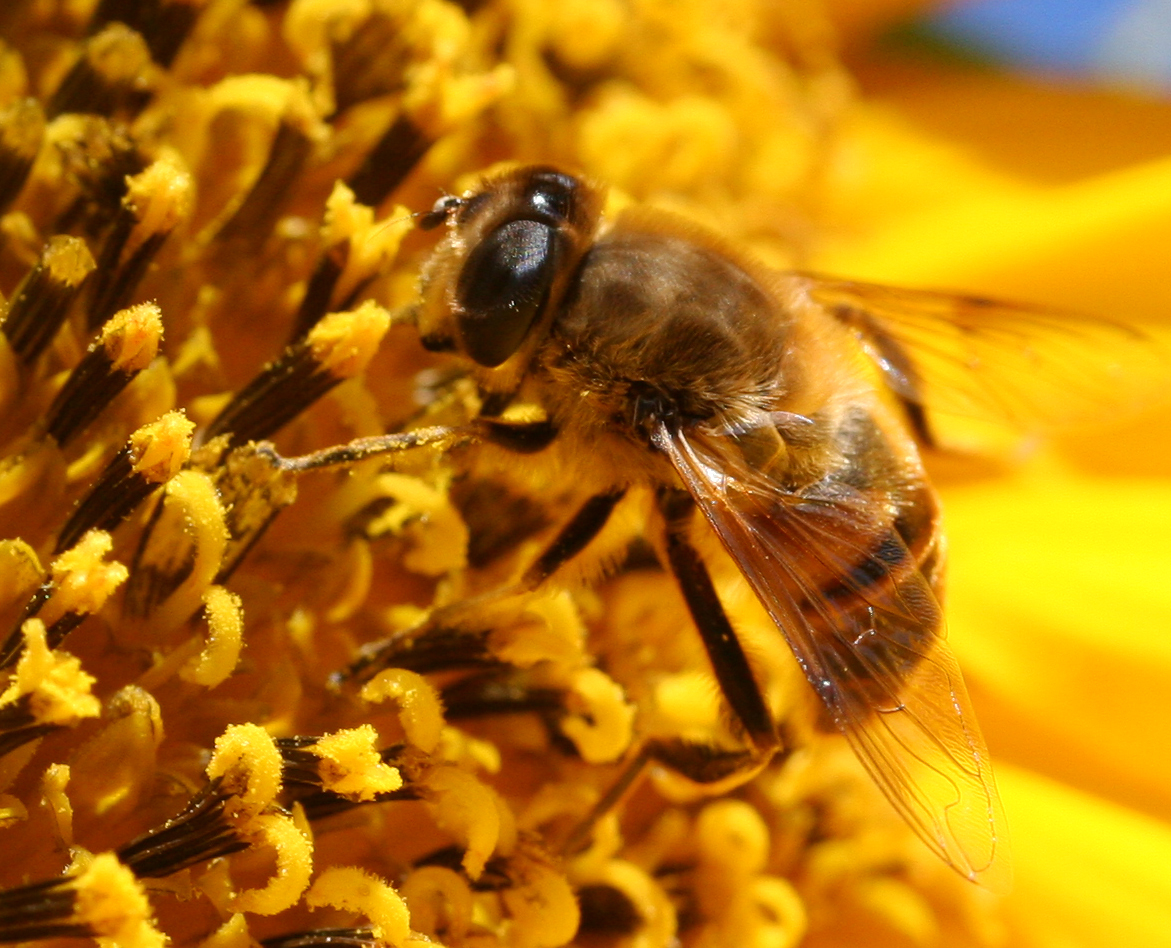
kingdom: Animalia
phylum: Arthropoda
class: Insecta
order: Diptera
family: Syrphidae
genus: Eristalis
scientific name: Eristalis tenax
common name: Drone fly
